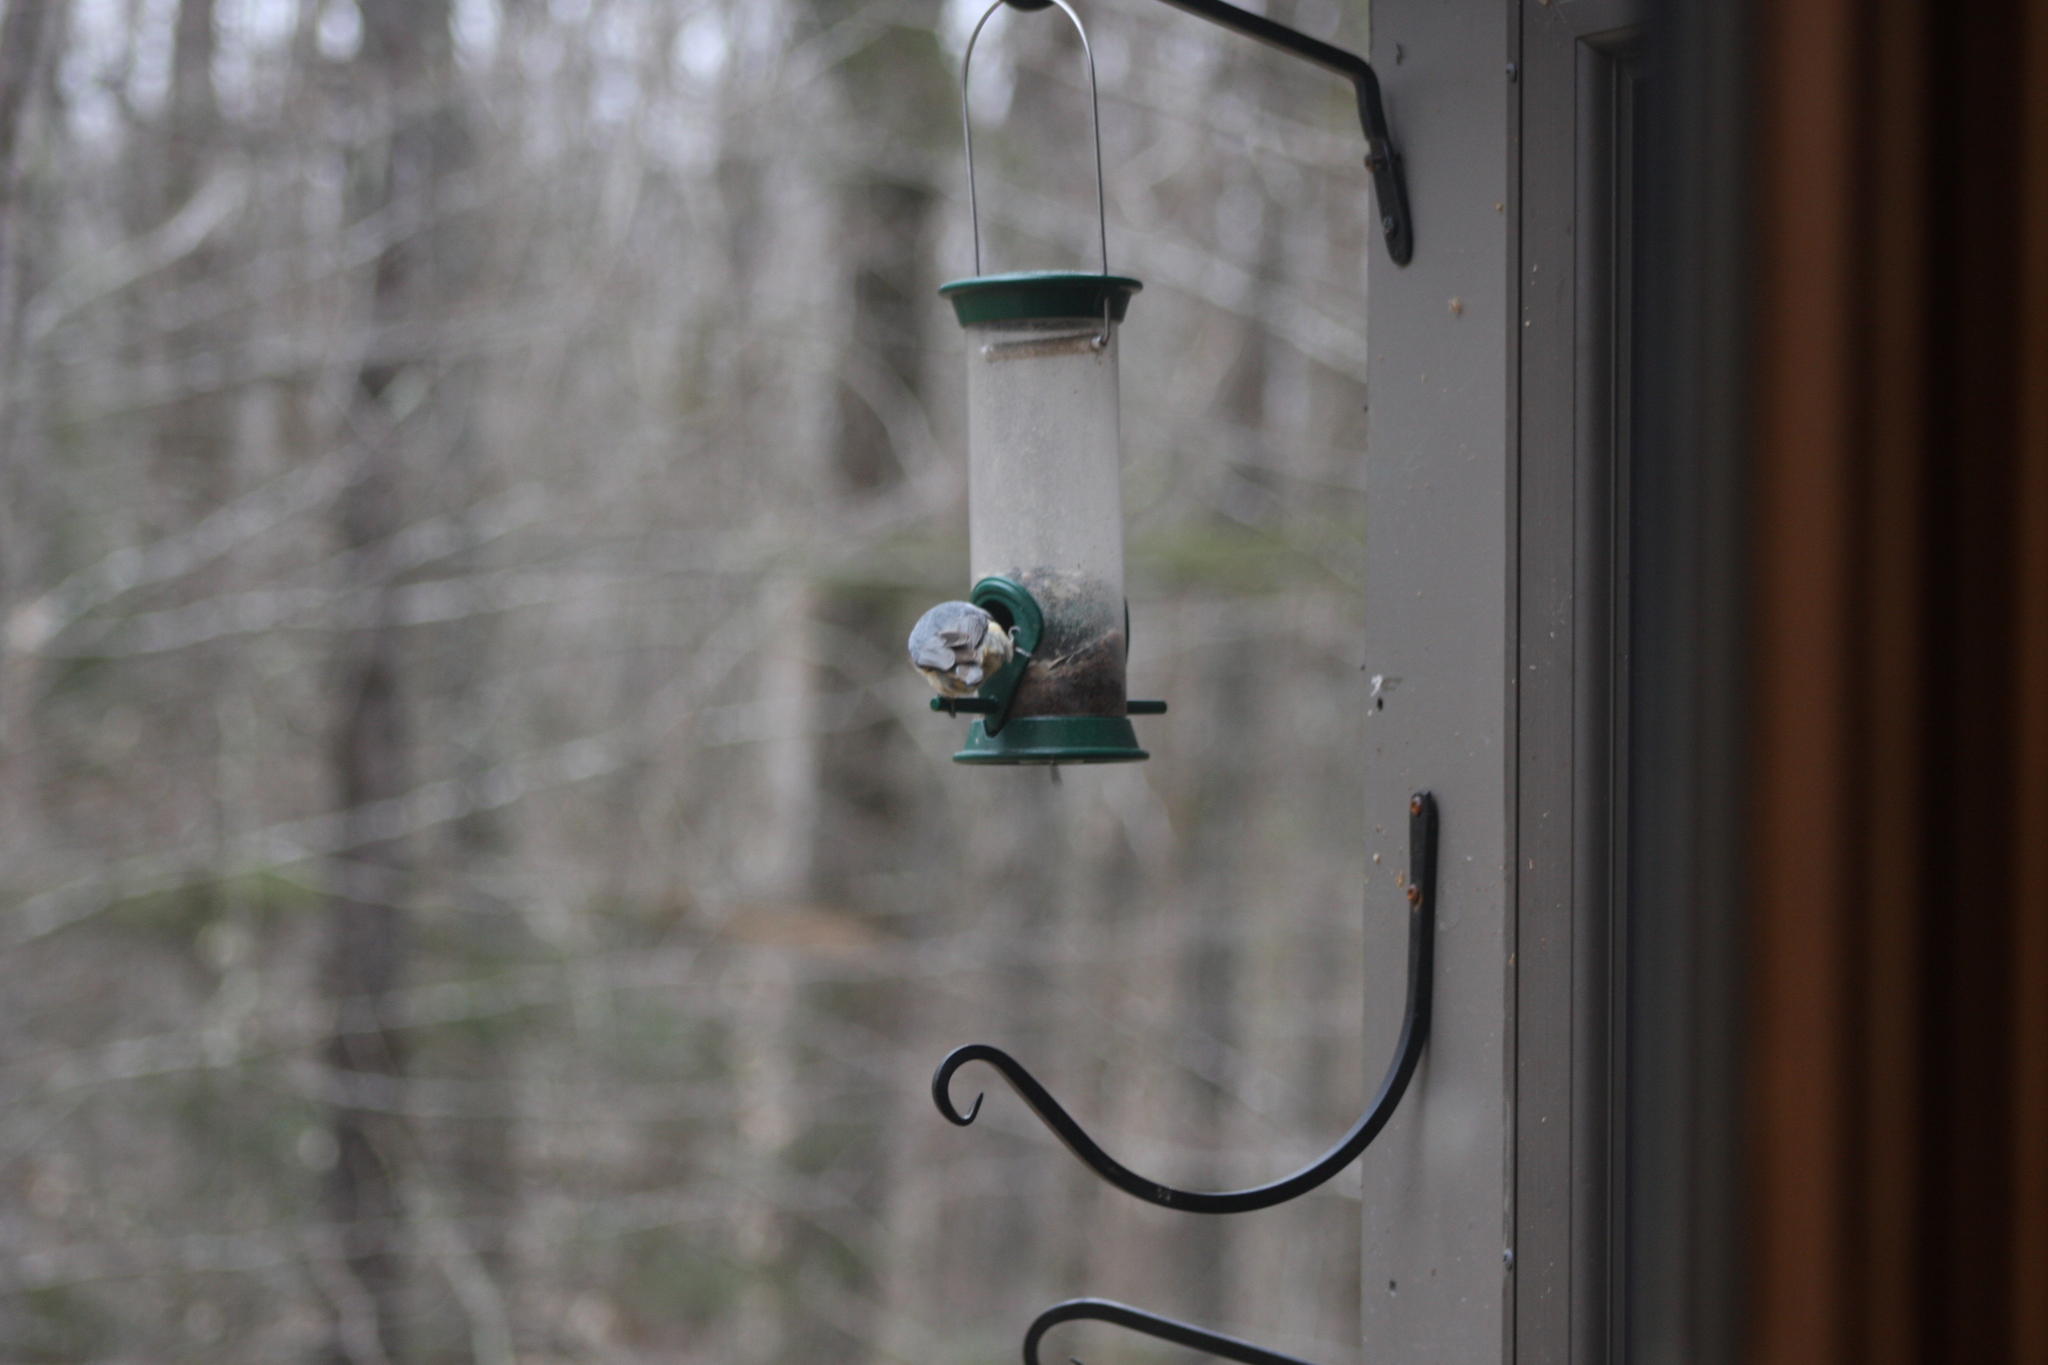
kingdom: Animalia
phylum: Chordata
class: Aves
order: Passeriformes
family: Sittidae
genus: Sitta
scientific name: Sitta canadensis
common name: Red-breasted nuthatch
